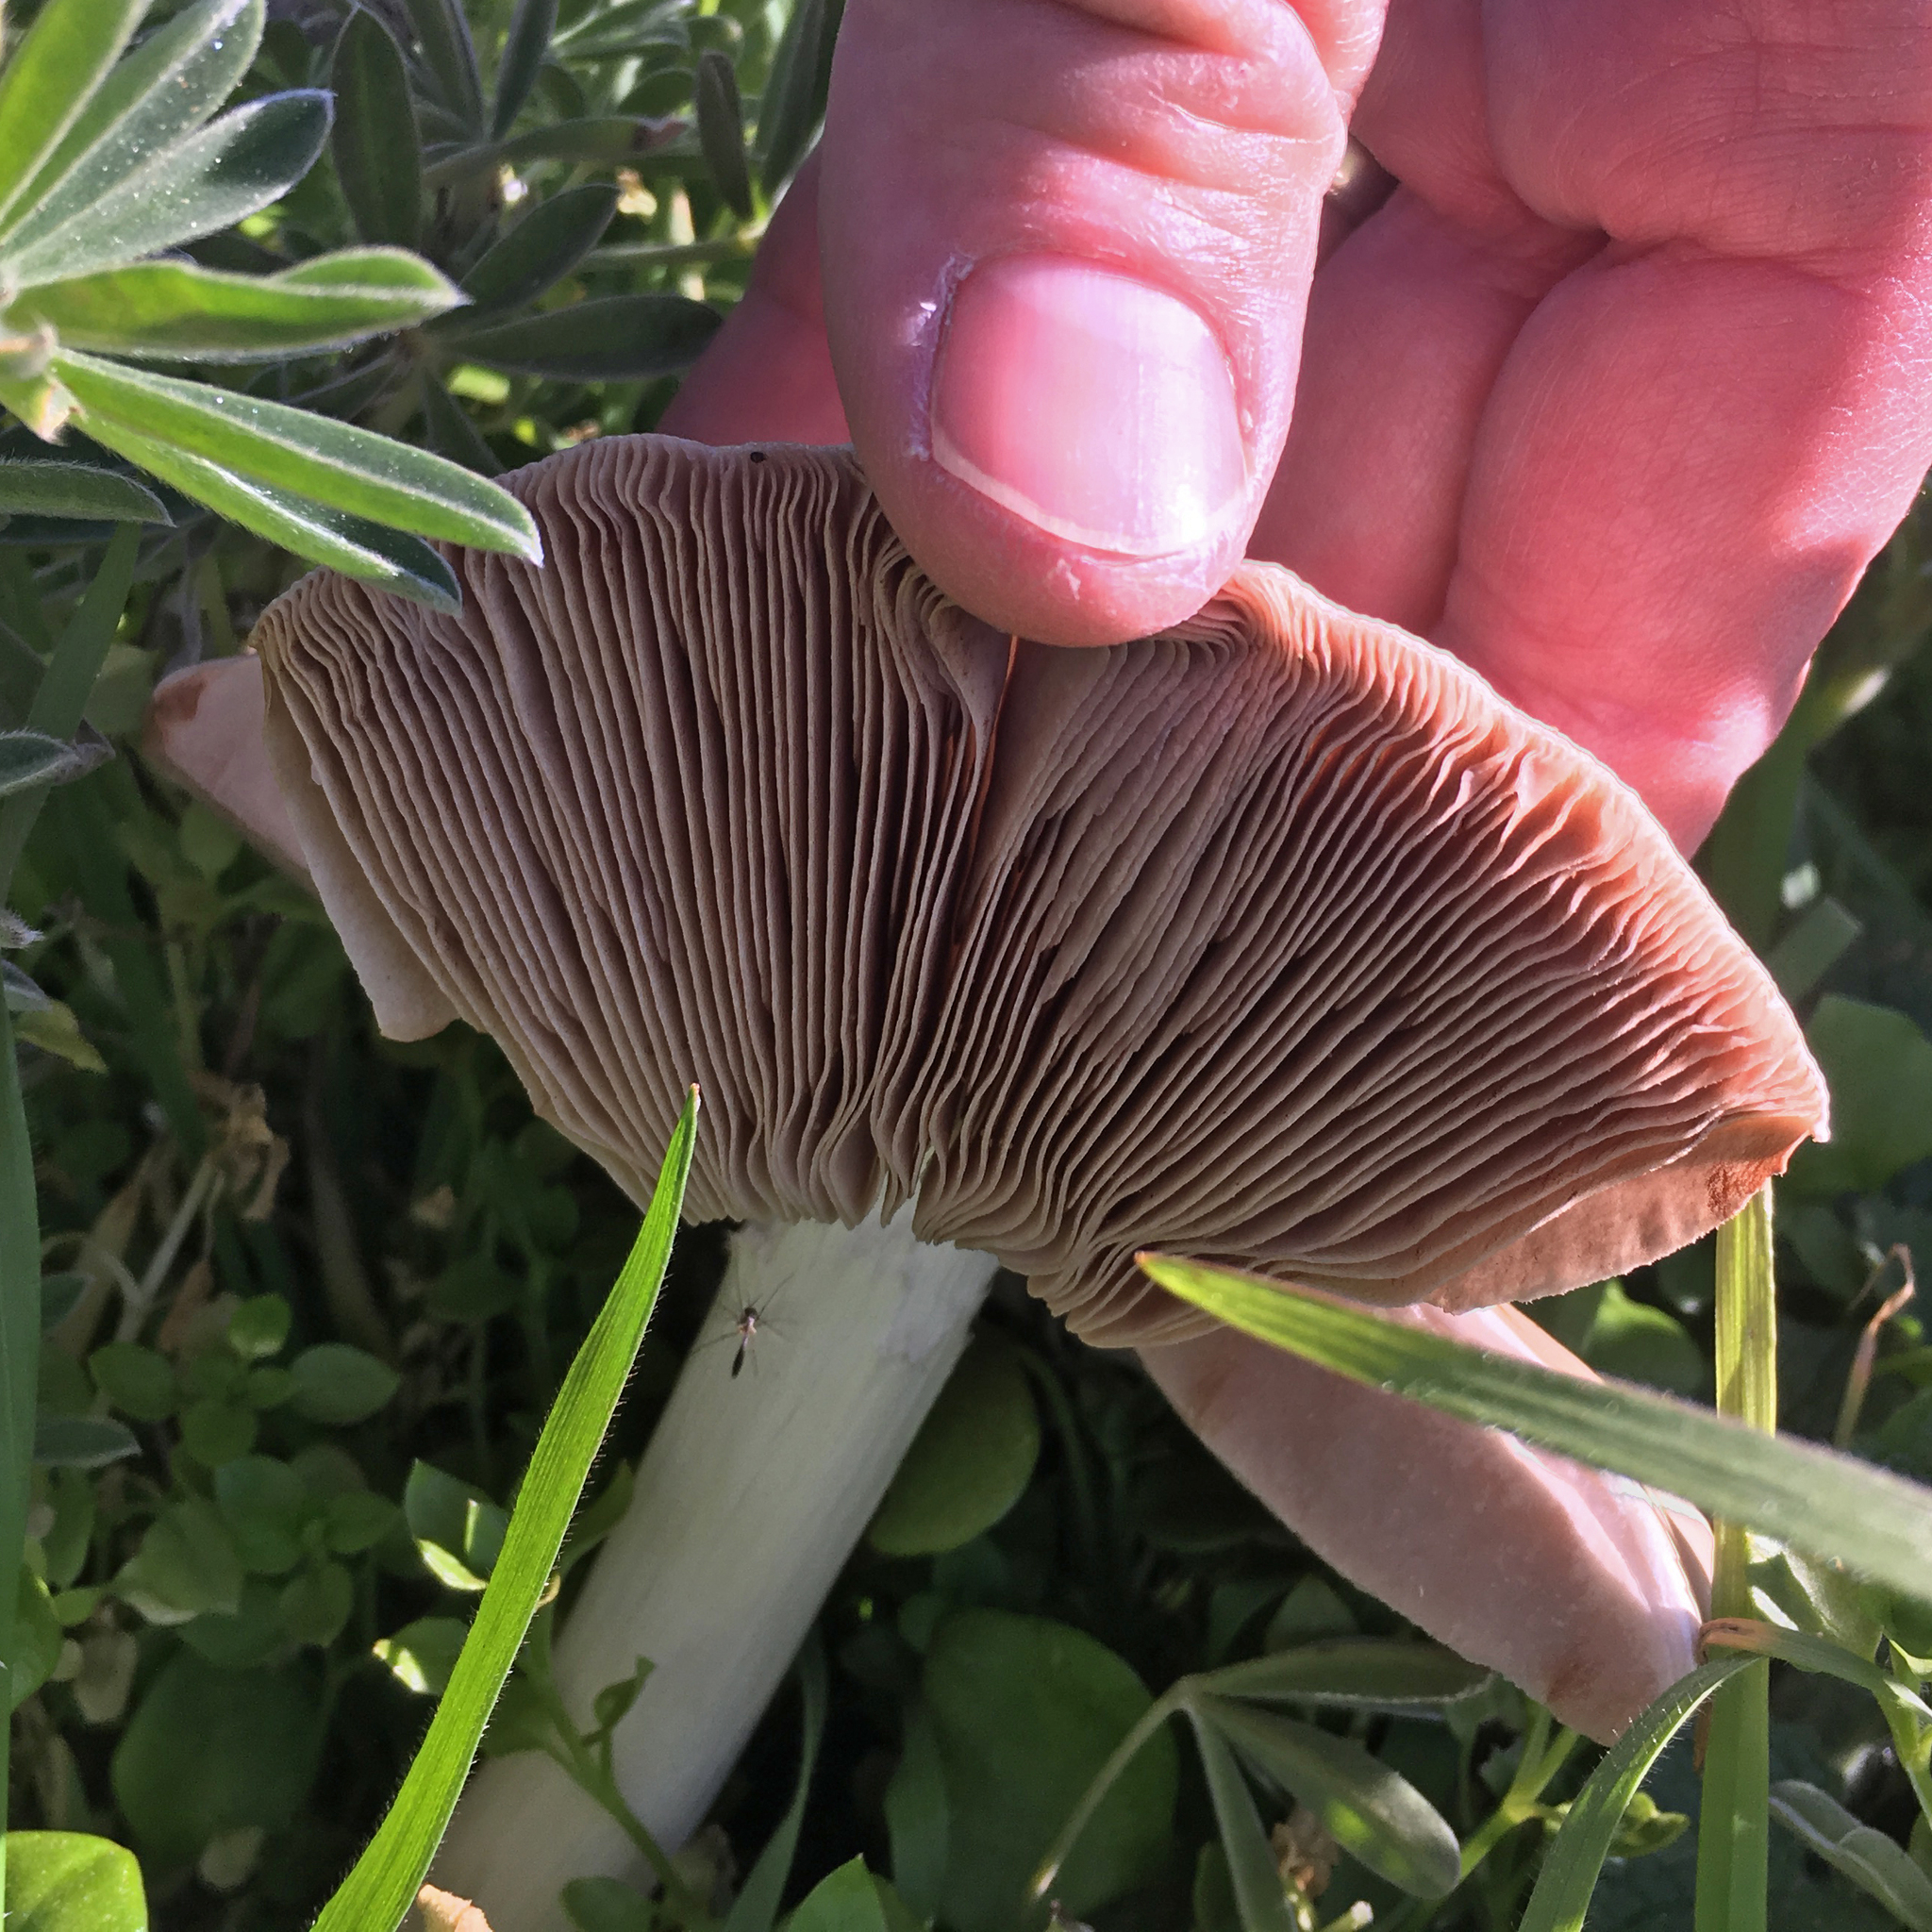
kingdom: Fungi
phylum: Basidiomycota
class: Agaricomycetes
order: Agaricales
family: Pluteaceae
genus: Volvopluteus
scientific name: Volvopluteus gloiocephalus
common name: Stubble rosegill
